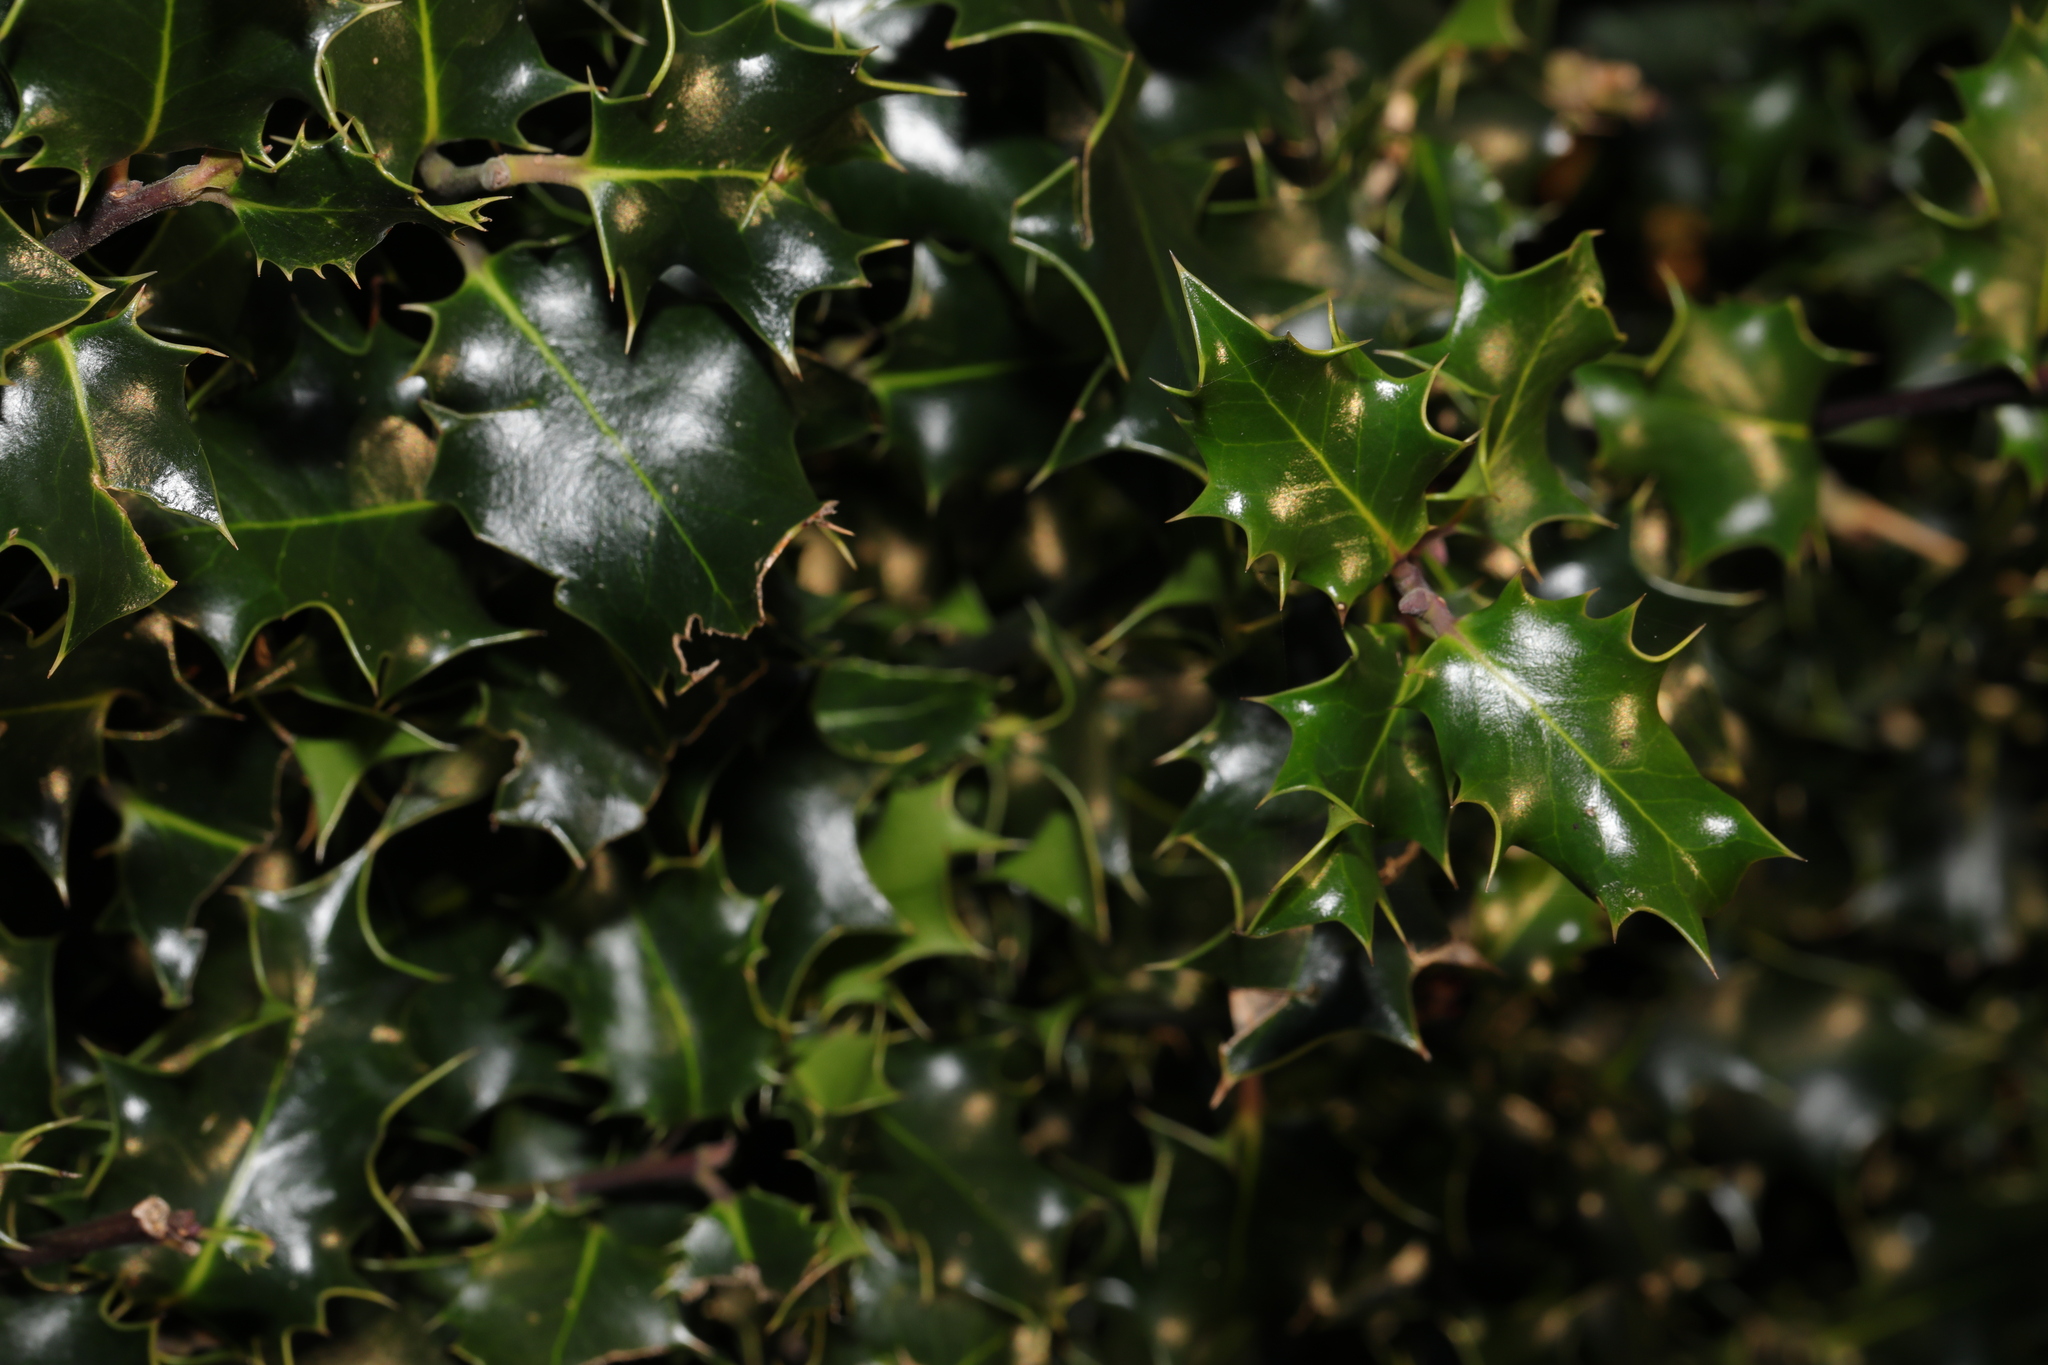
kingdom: Plantae
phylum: Tracheophyta
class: Magnoliopsida
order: Aquifoliales
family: Aquifoliaceae
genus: Ilex
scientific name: Ilex aquifolium
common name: English holly
